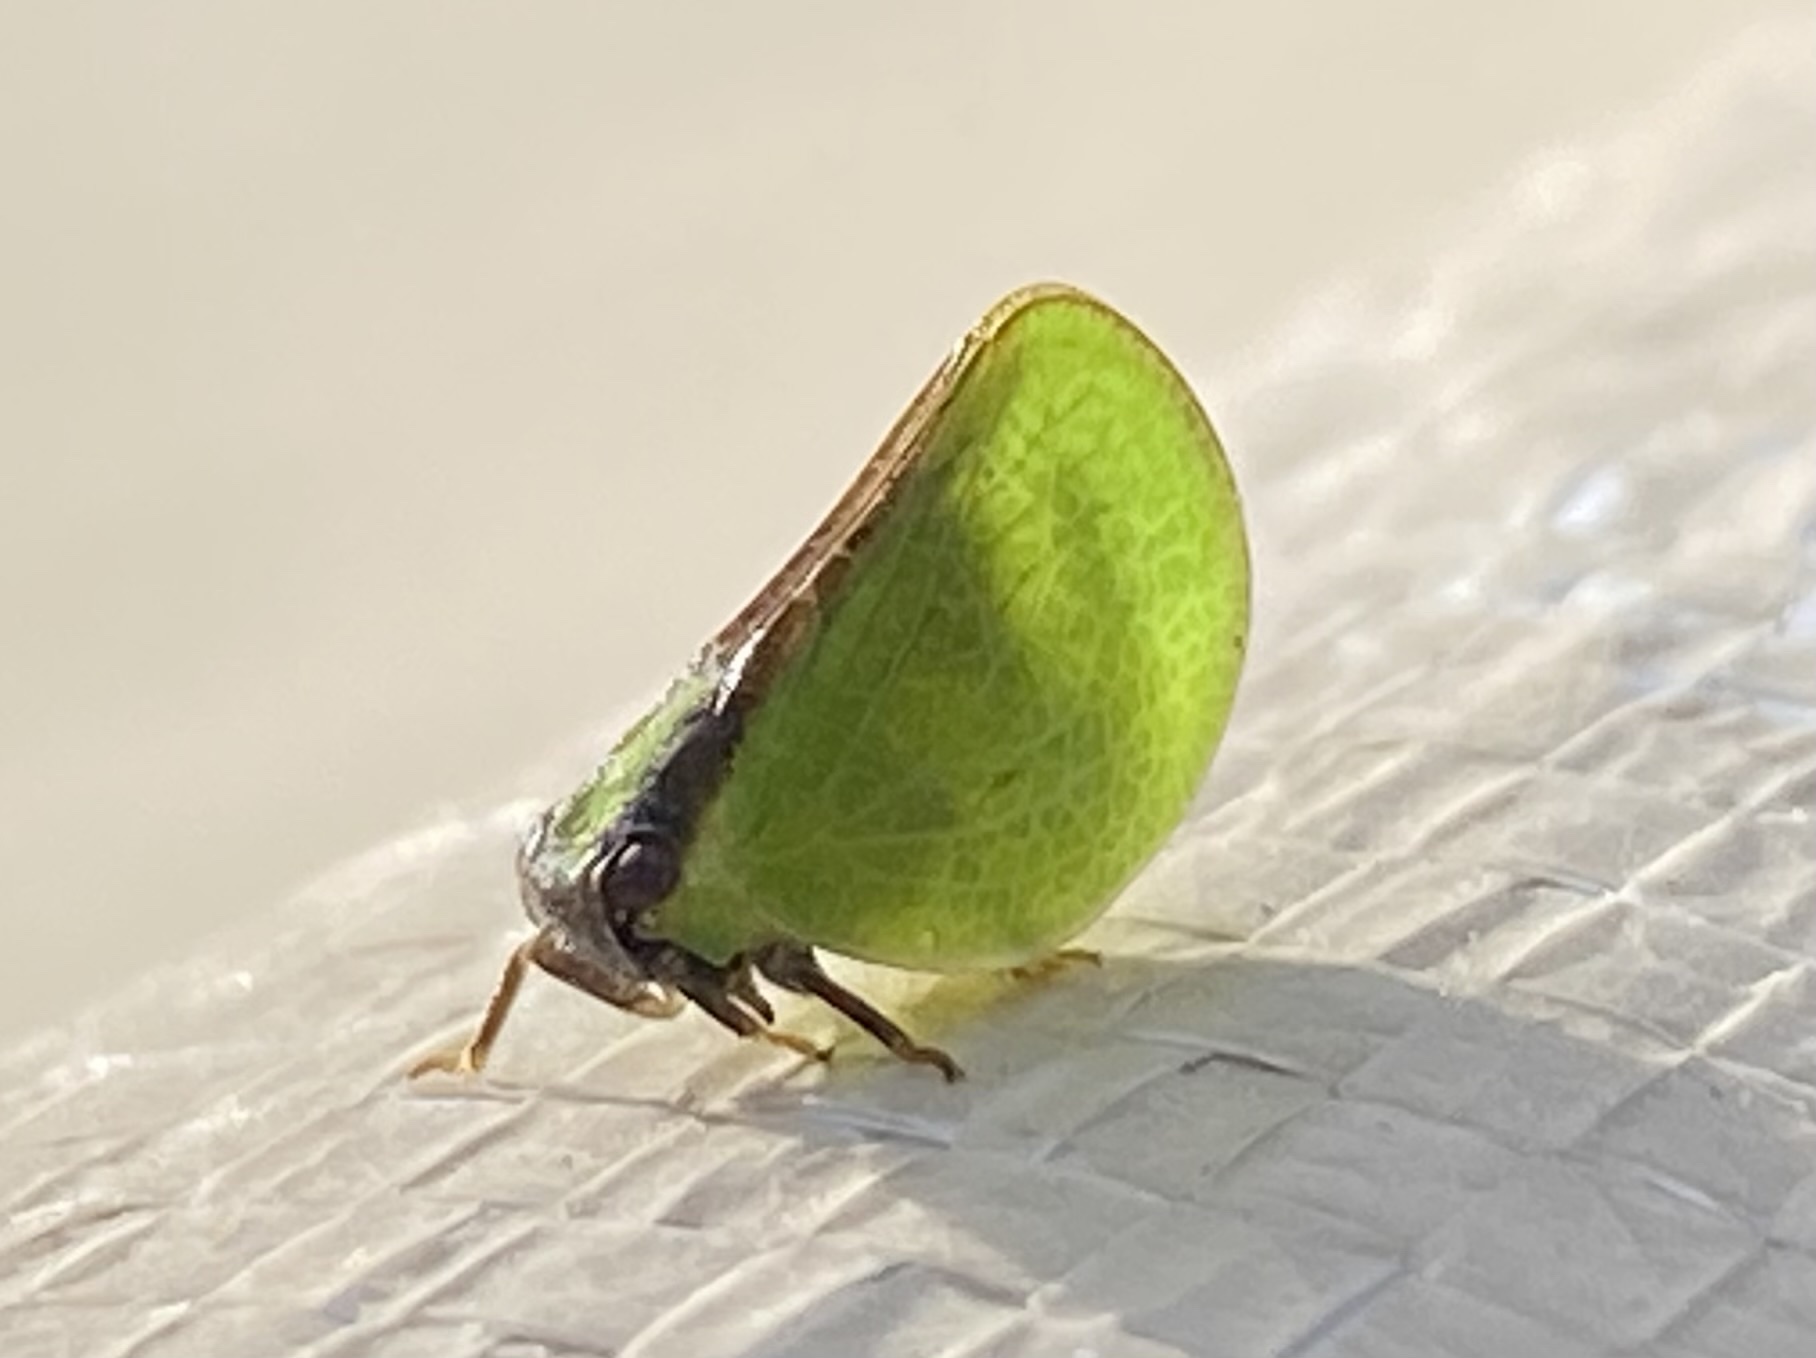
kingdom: Animalia
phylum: Arthropoda
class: Insecta
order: Hemiptera
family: Acanaloniidae
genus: Acanalonia
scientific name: Acanalonia bivittata
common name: Two-striped planthopper
